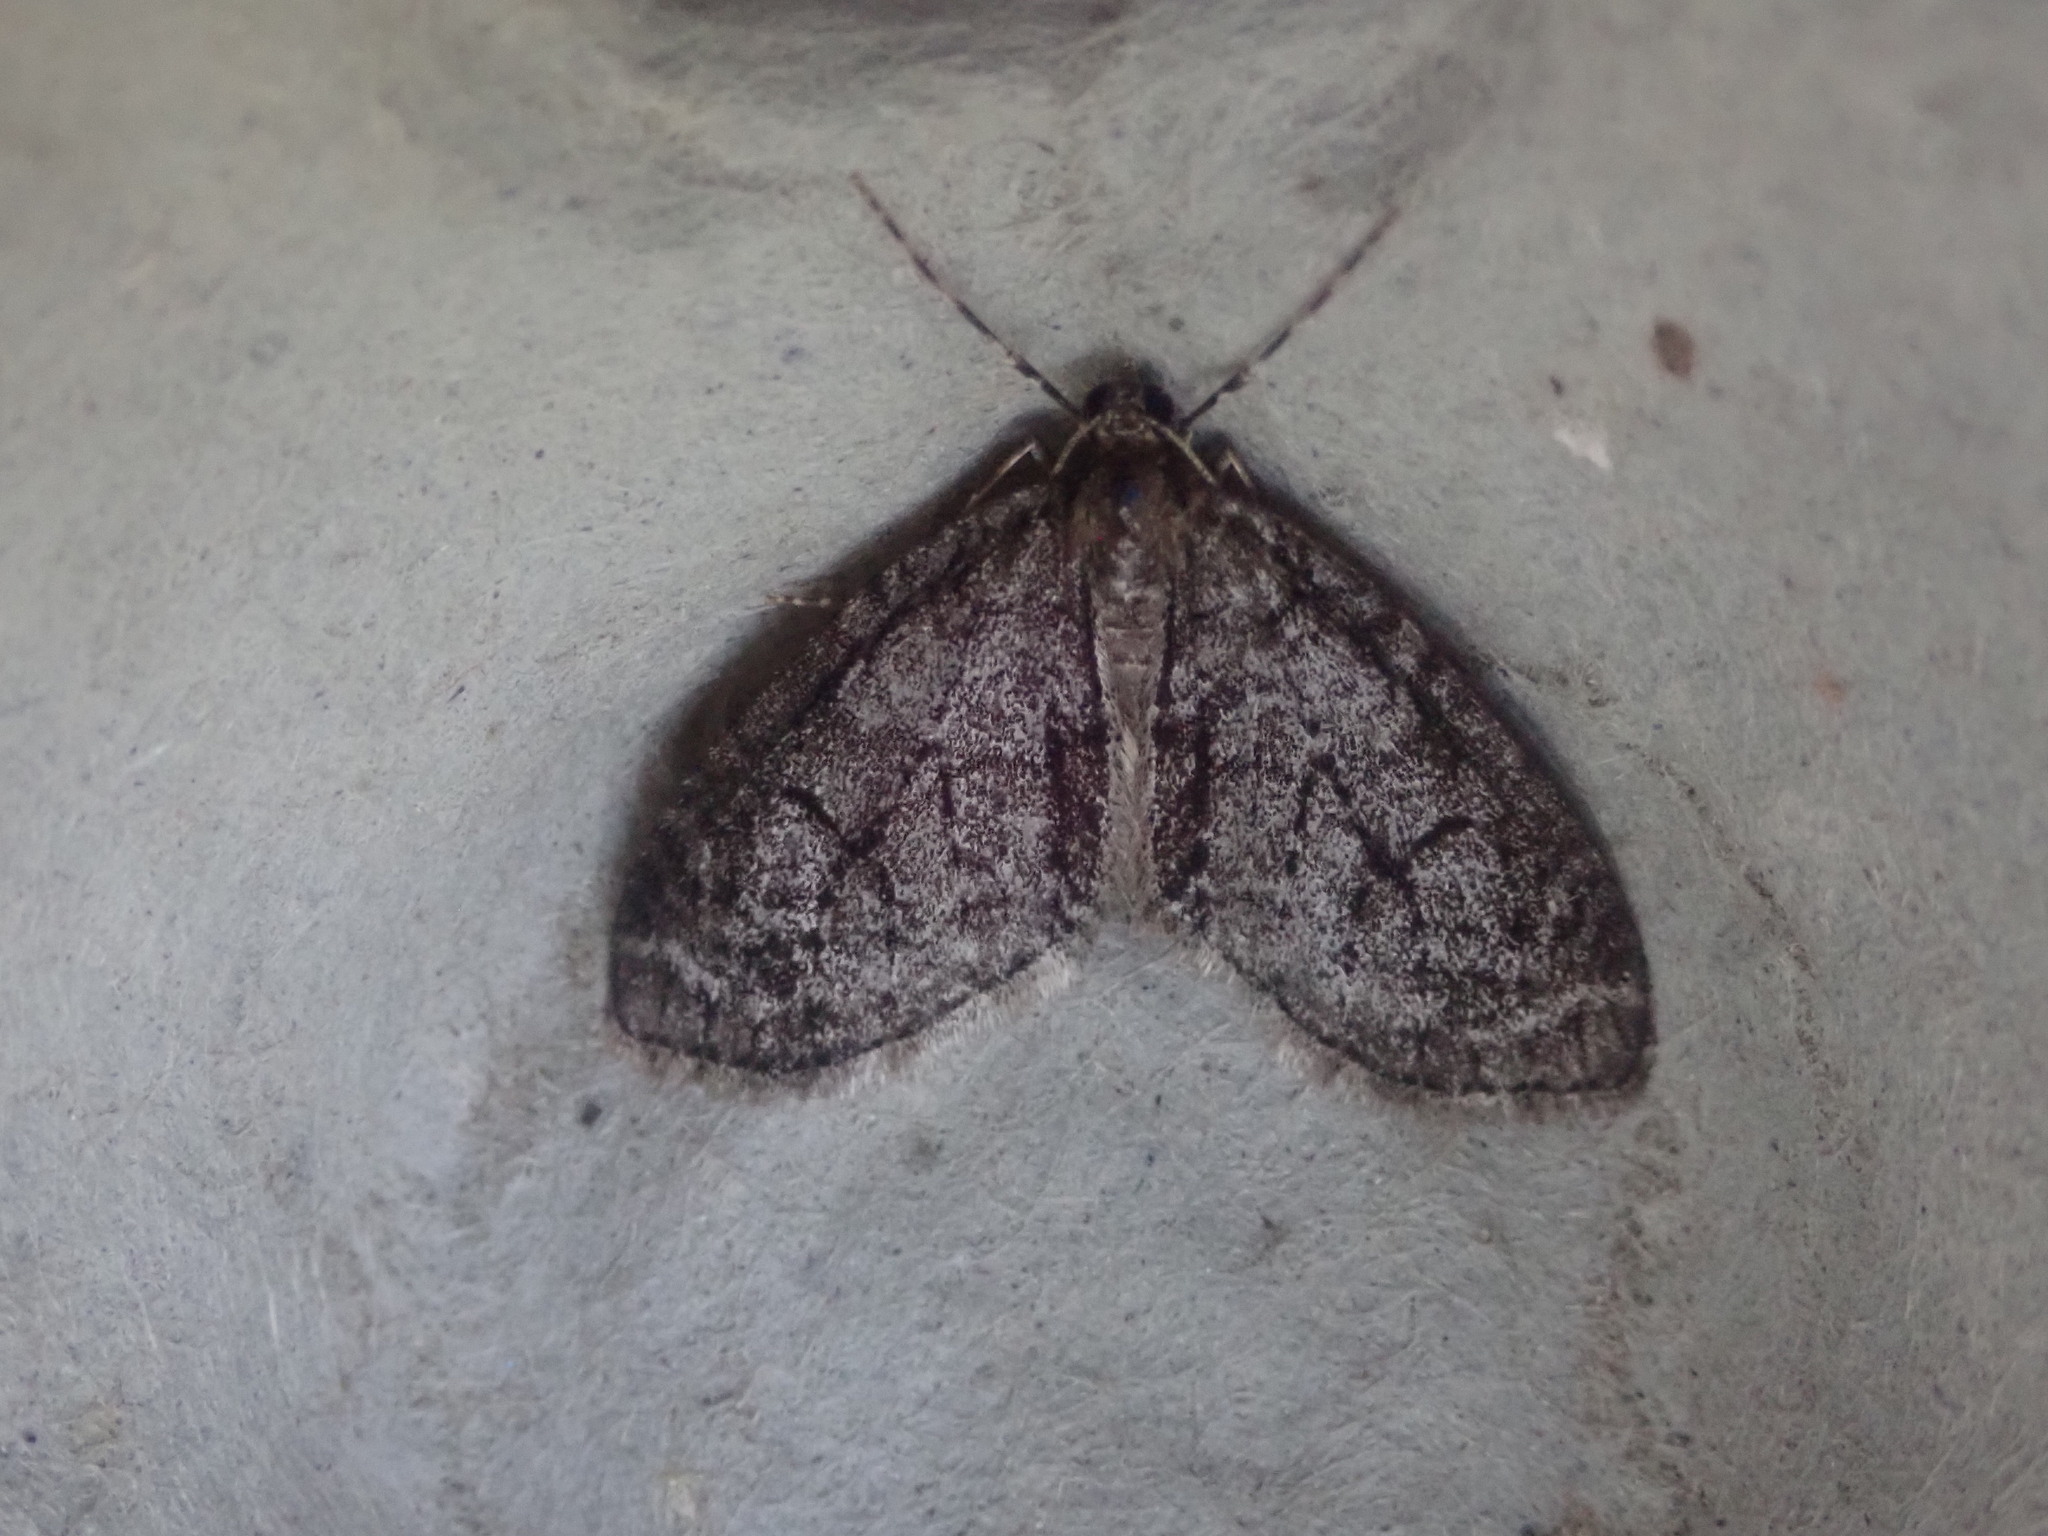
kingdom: Animalia
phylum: Arthropoda
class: Insecta
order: Lepidoptera
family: Geometridae
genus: Cladara
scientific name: Cladara limitaria
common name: Mottled gray carpet
